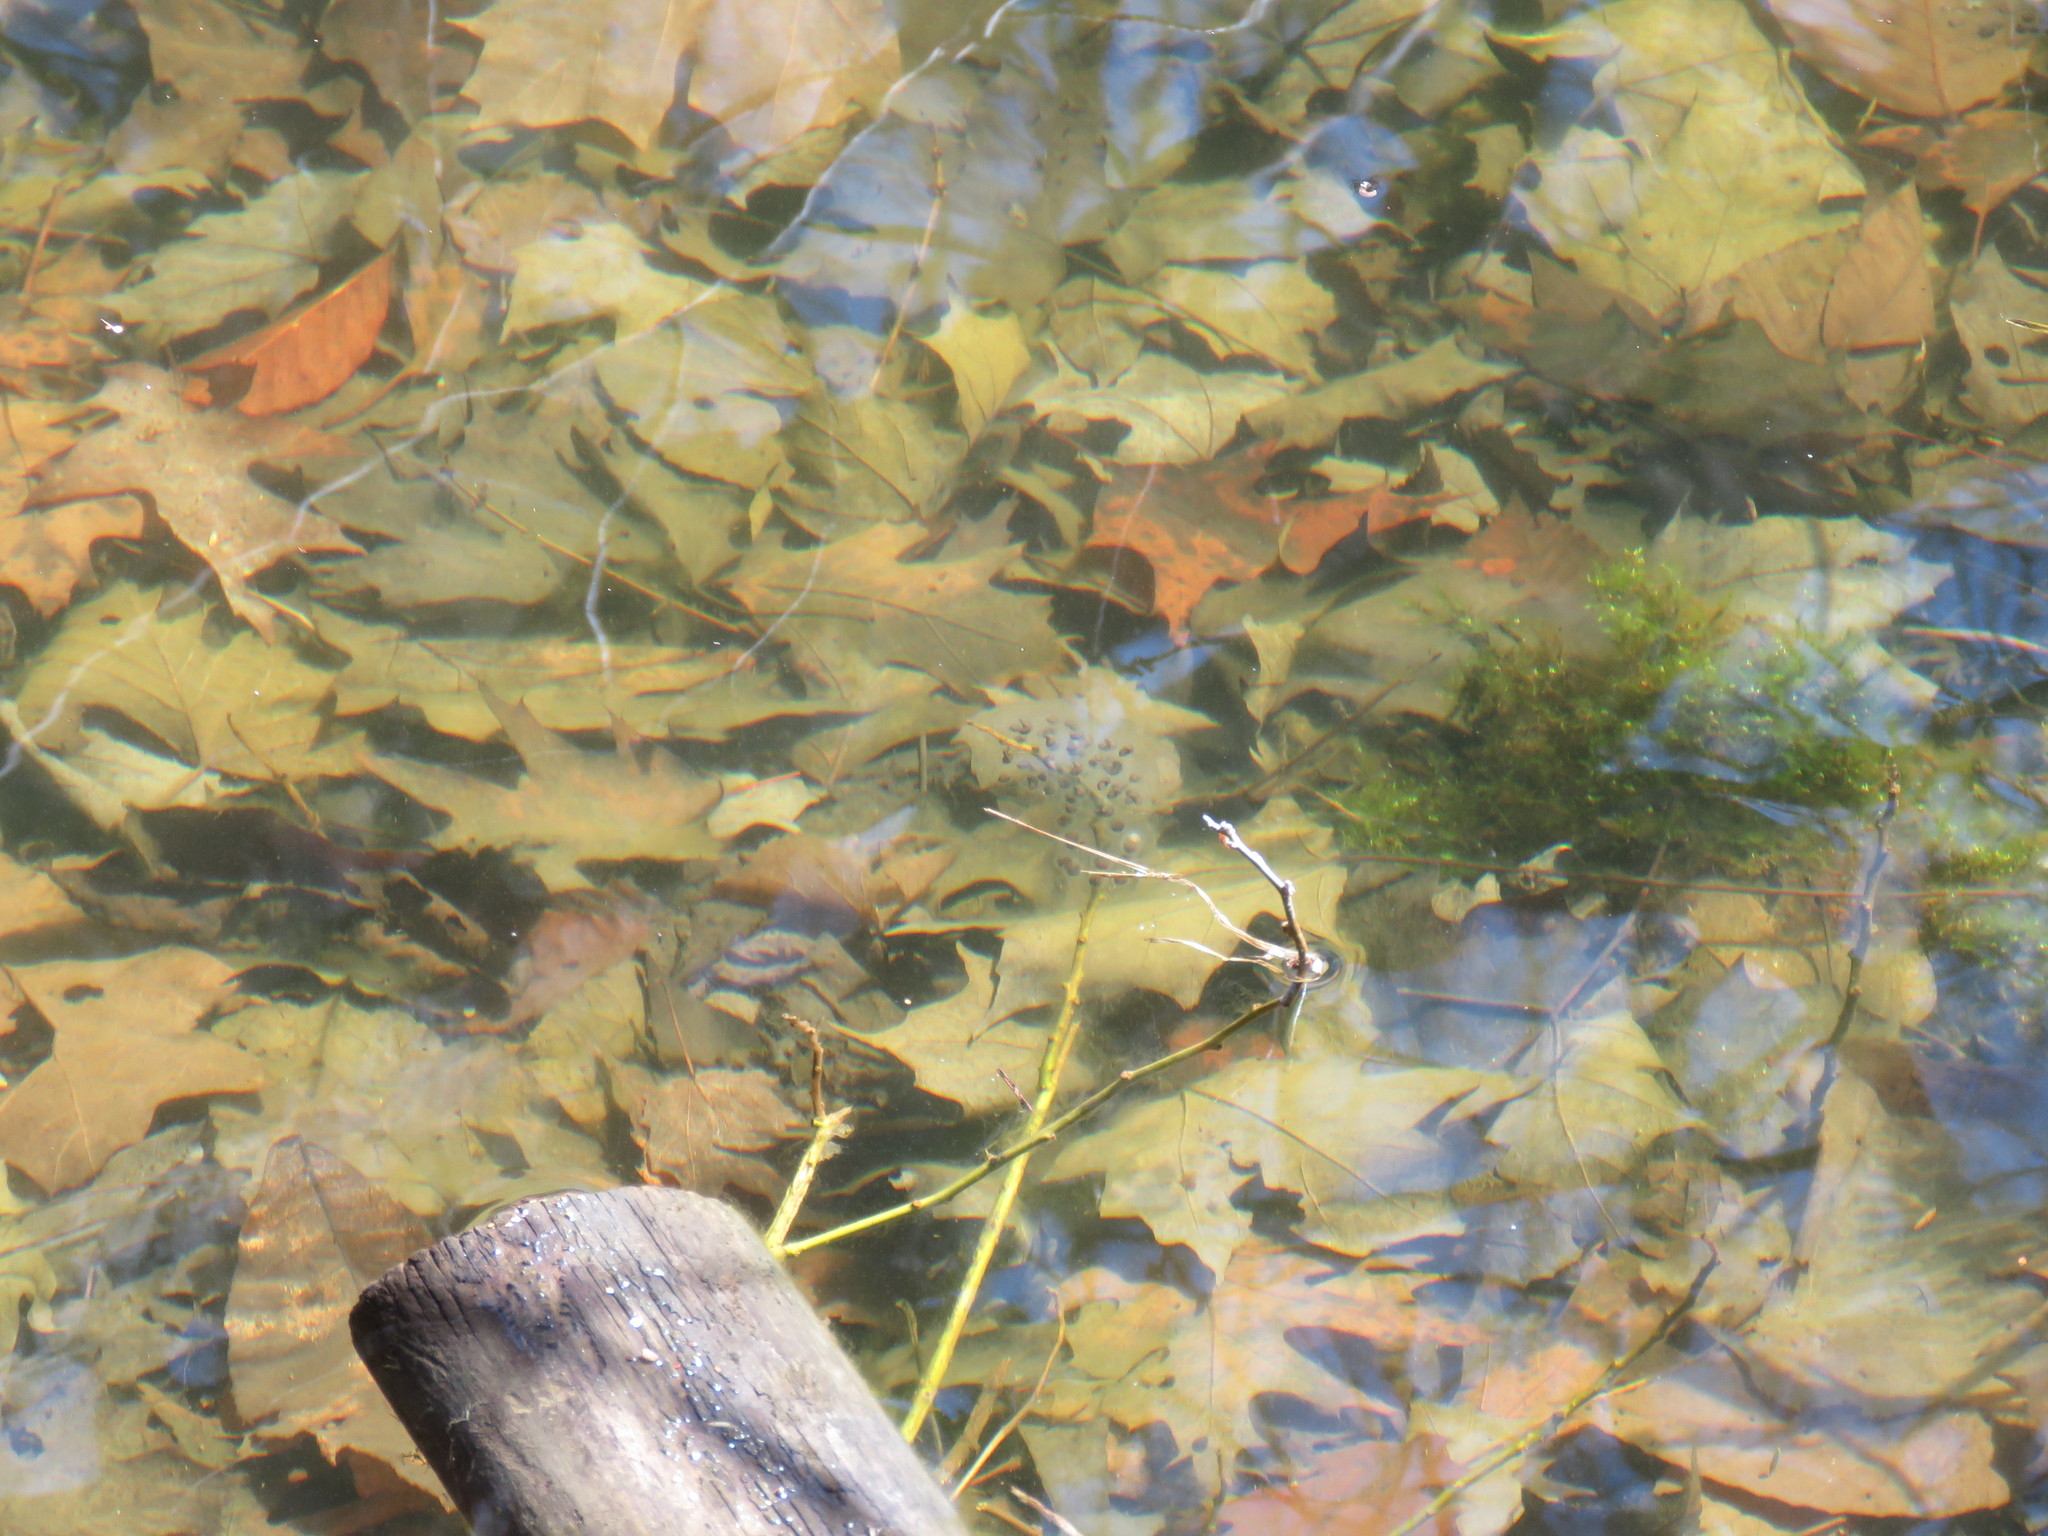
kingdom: Animalia
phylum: Chordata
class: Amphibia
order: Caudata
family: Ambystomatidae
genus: Ambystoma
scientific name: Ambystoma maculatum
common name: Spotted salamander
